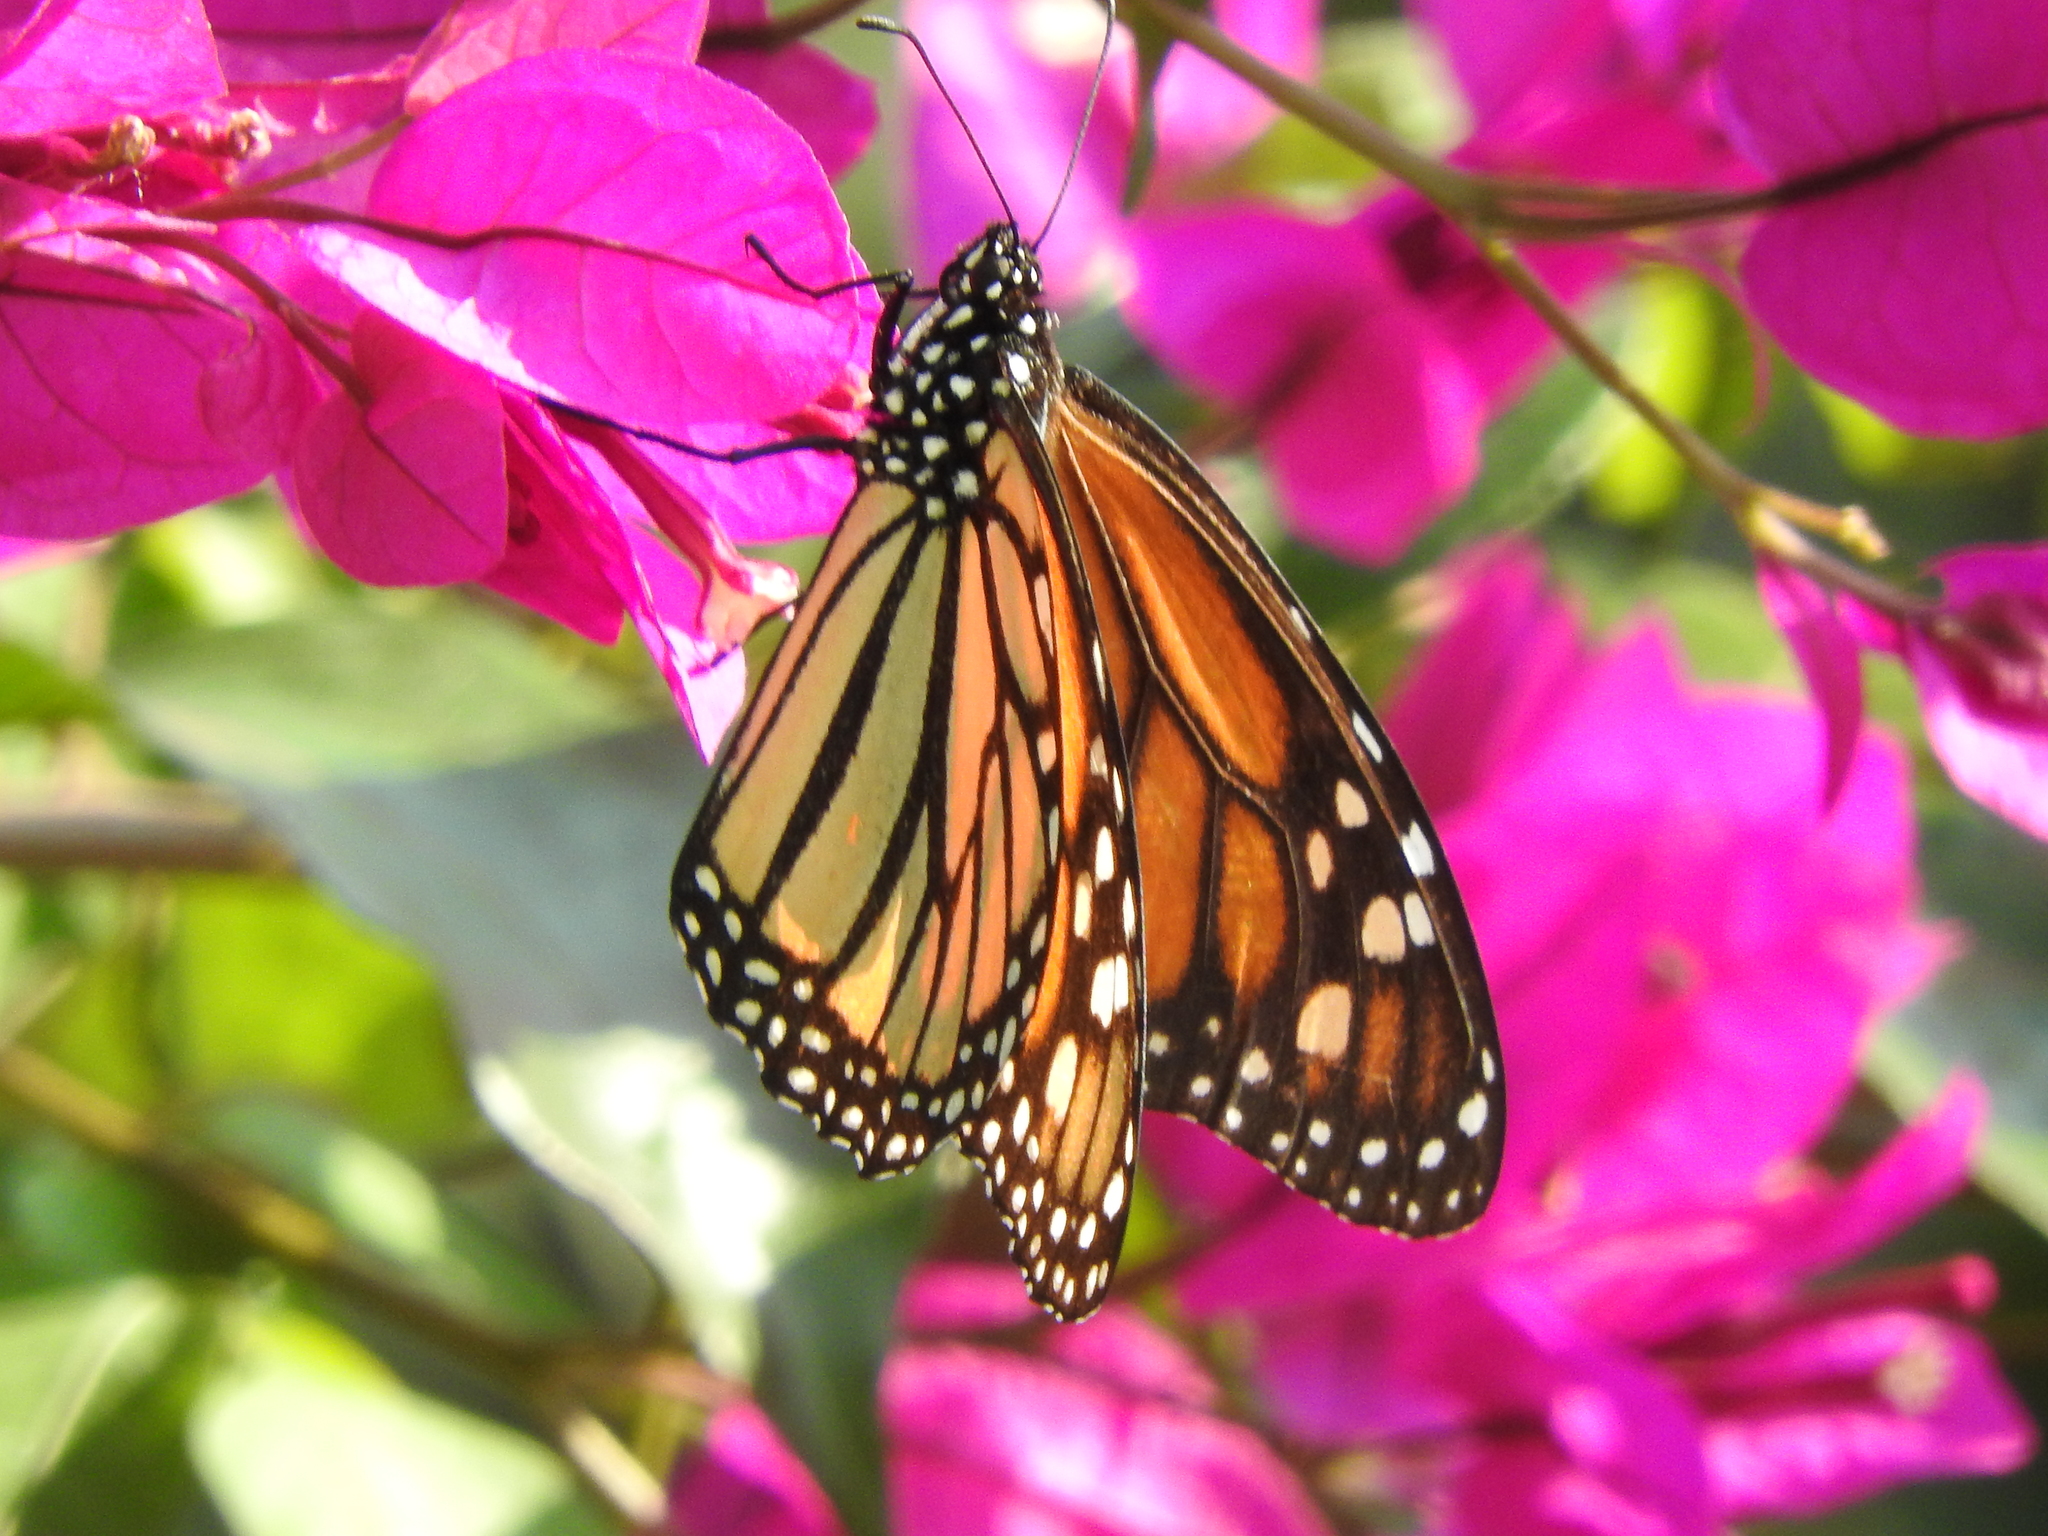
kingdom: Animalia
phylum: Arthropoda
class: Insecta
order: Lepidoptera
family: Nymphalidae
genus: Danaus
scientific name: Danaus plexippus
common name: Monarch
